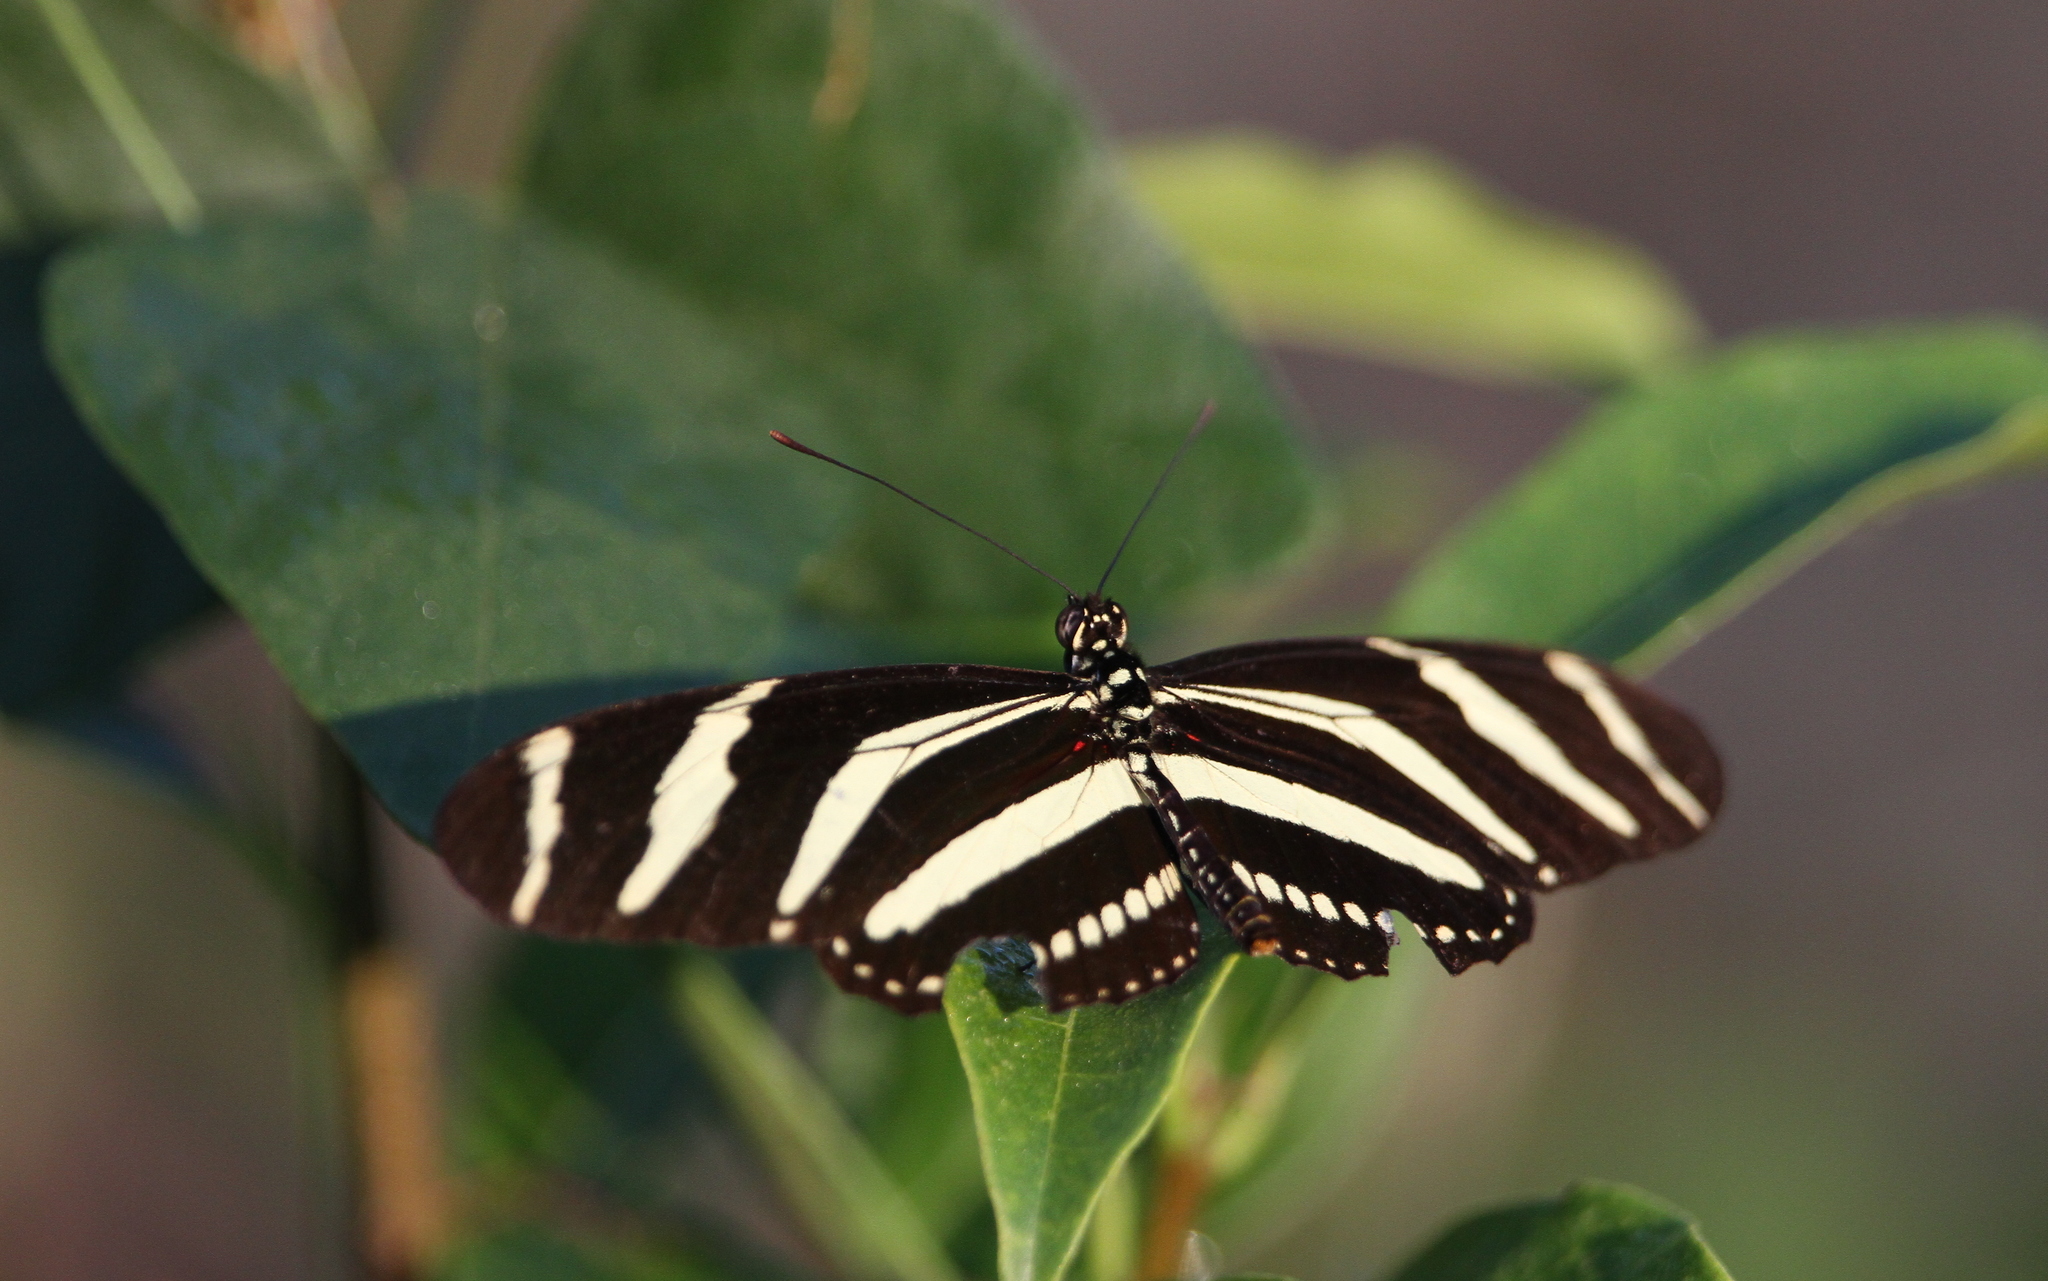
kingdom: Animalia
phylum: Arthropoda
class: Insecta
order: Lepidoptera
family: Nymphalidae
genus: Heliconius
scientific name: Heliconius charithonia
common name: Zebra long wing
